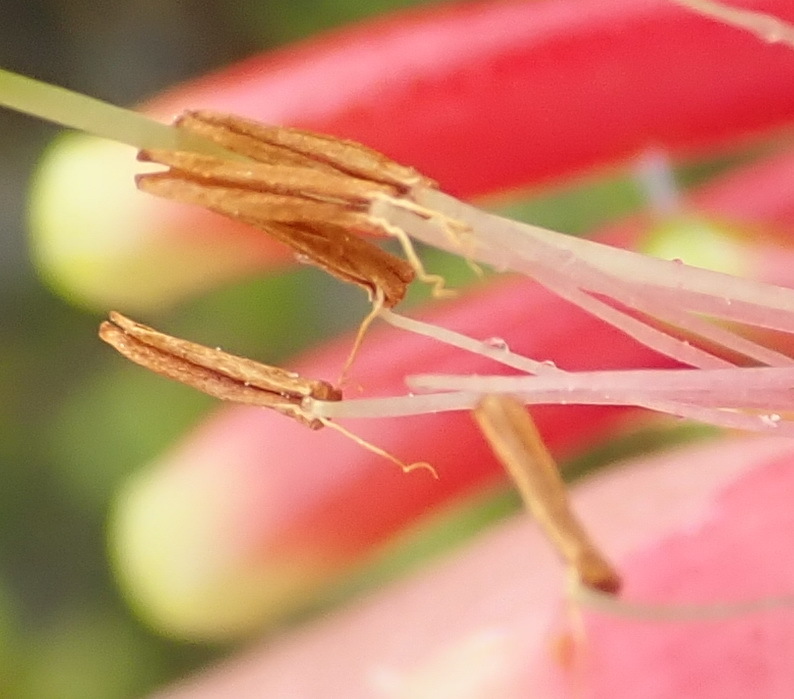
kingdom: Plantae
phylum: Tracheophyta
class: Magnoliopsida
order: Ericales
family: Ericaceae
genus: Erica
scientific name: Erica discolor
